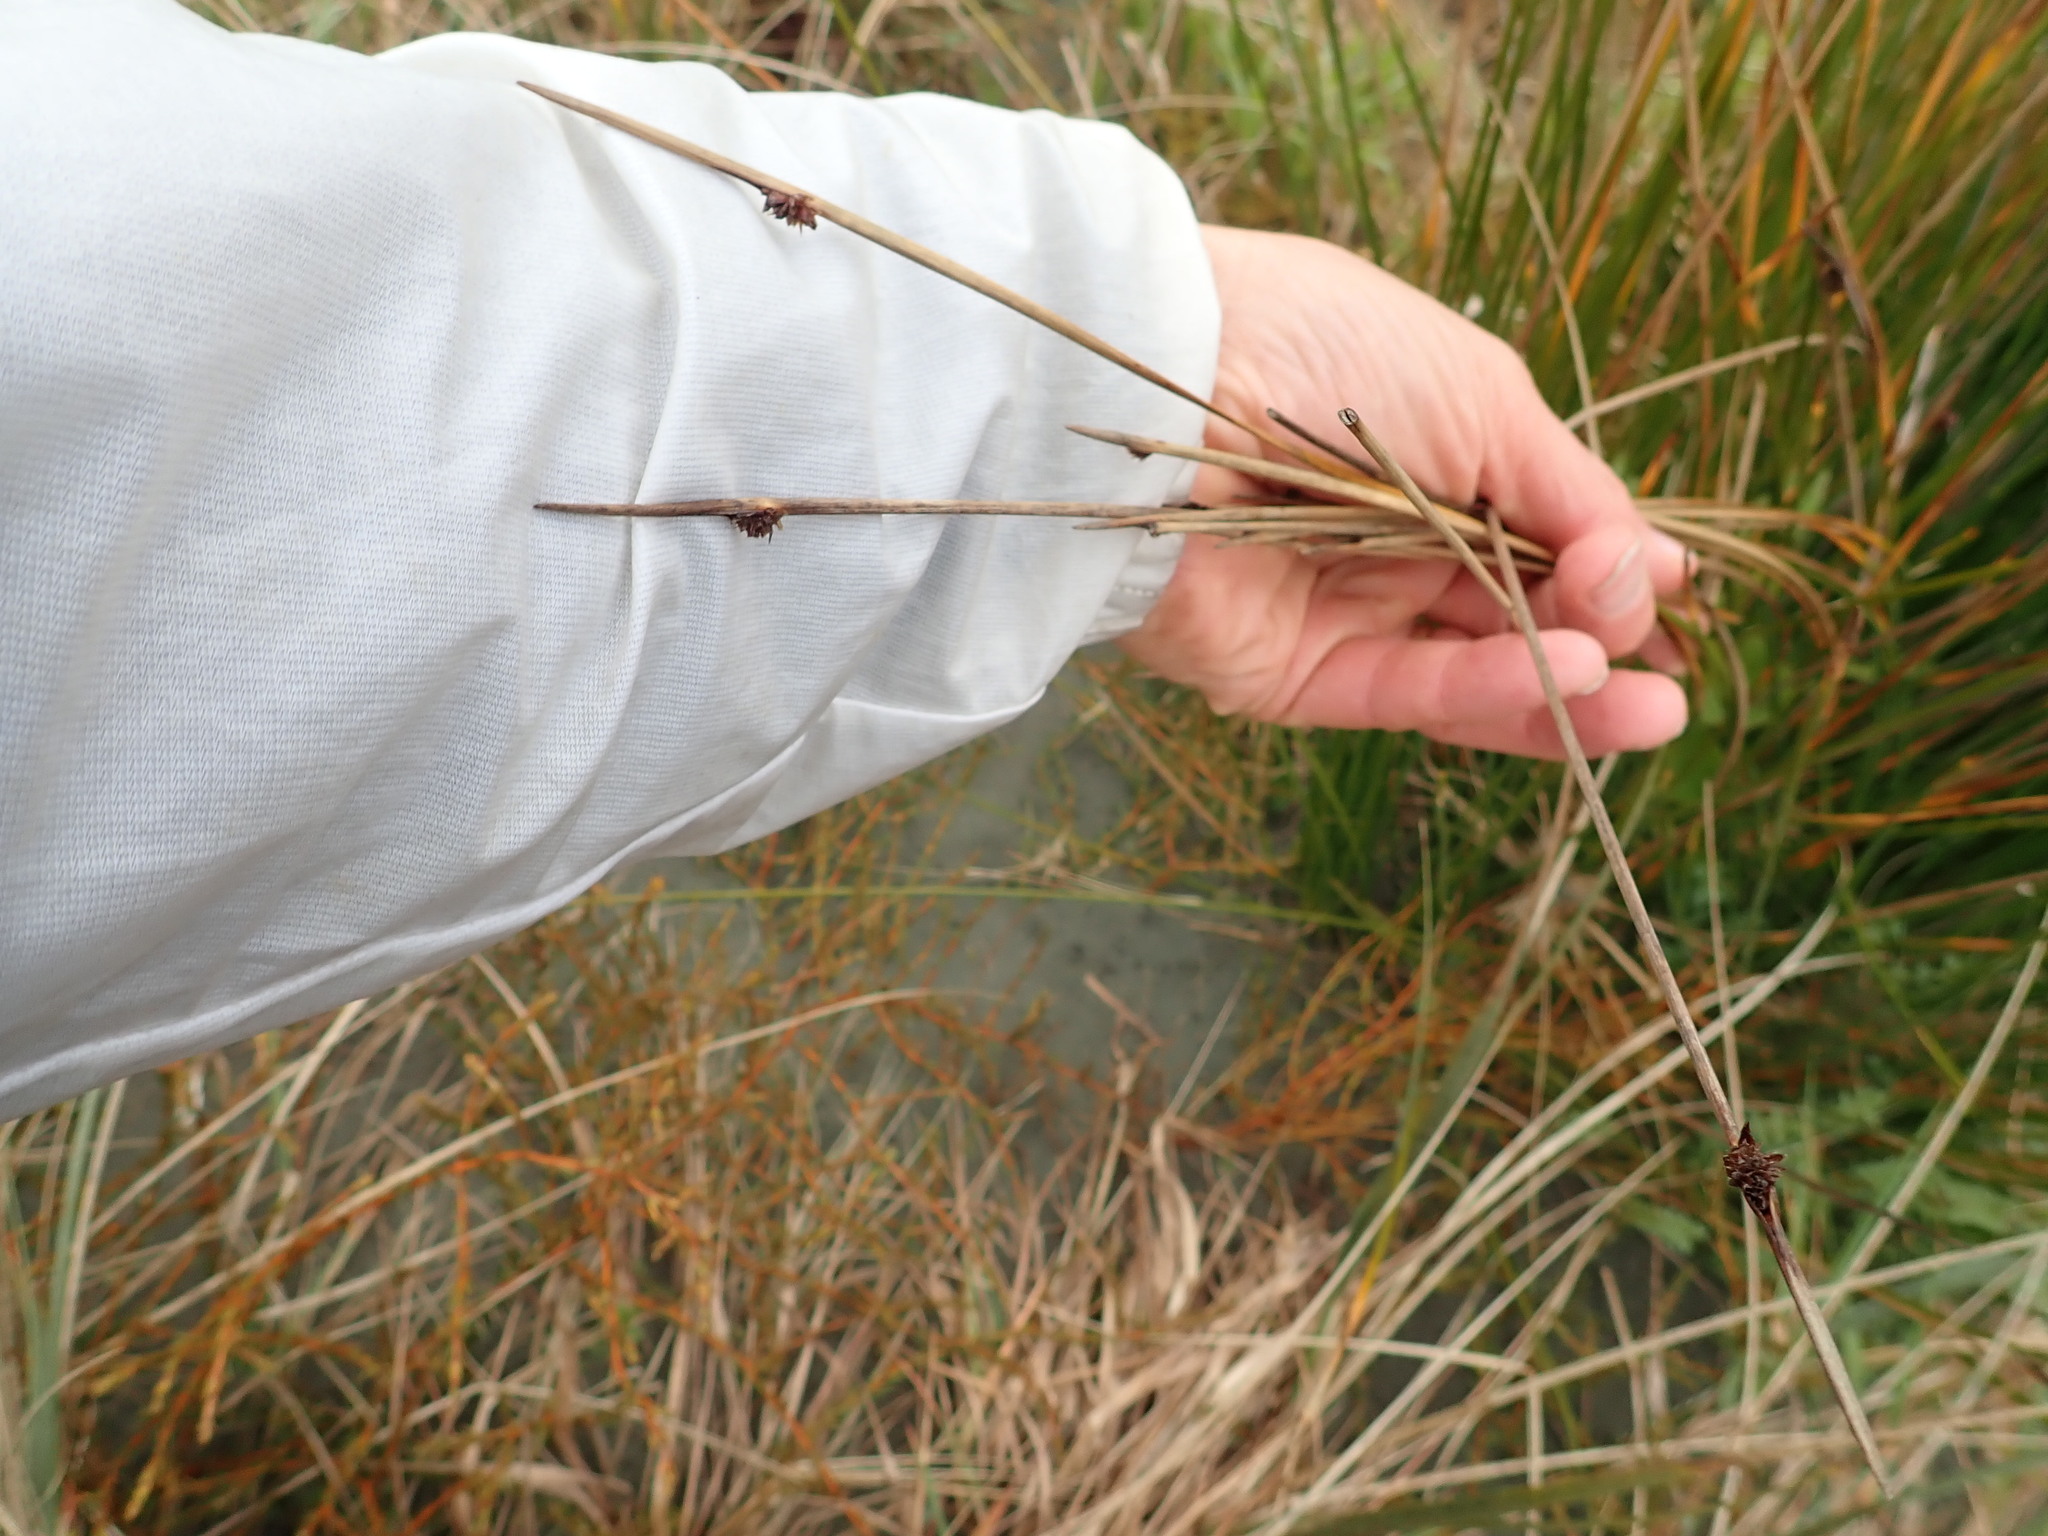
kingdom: Plantae
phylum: Tracheophyta
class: Liliopsida
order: Poales
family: Cyperaceae
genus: Ficinia
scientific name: Ficinia nodosa
